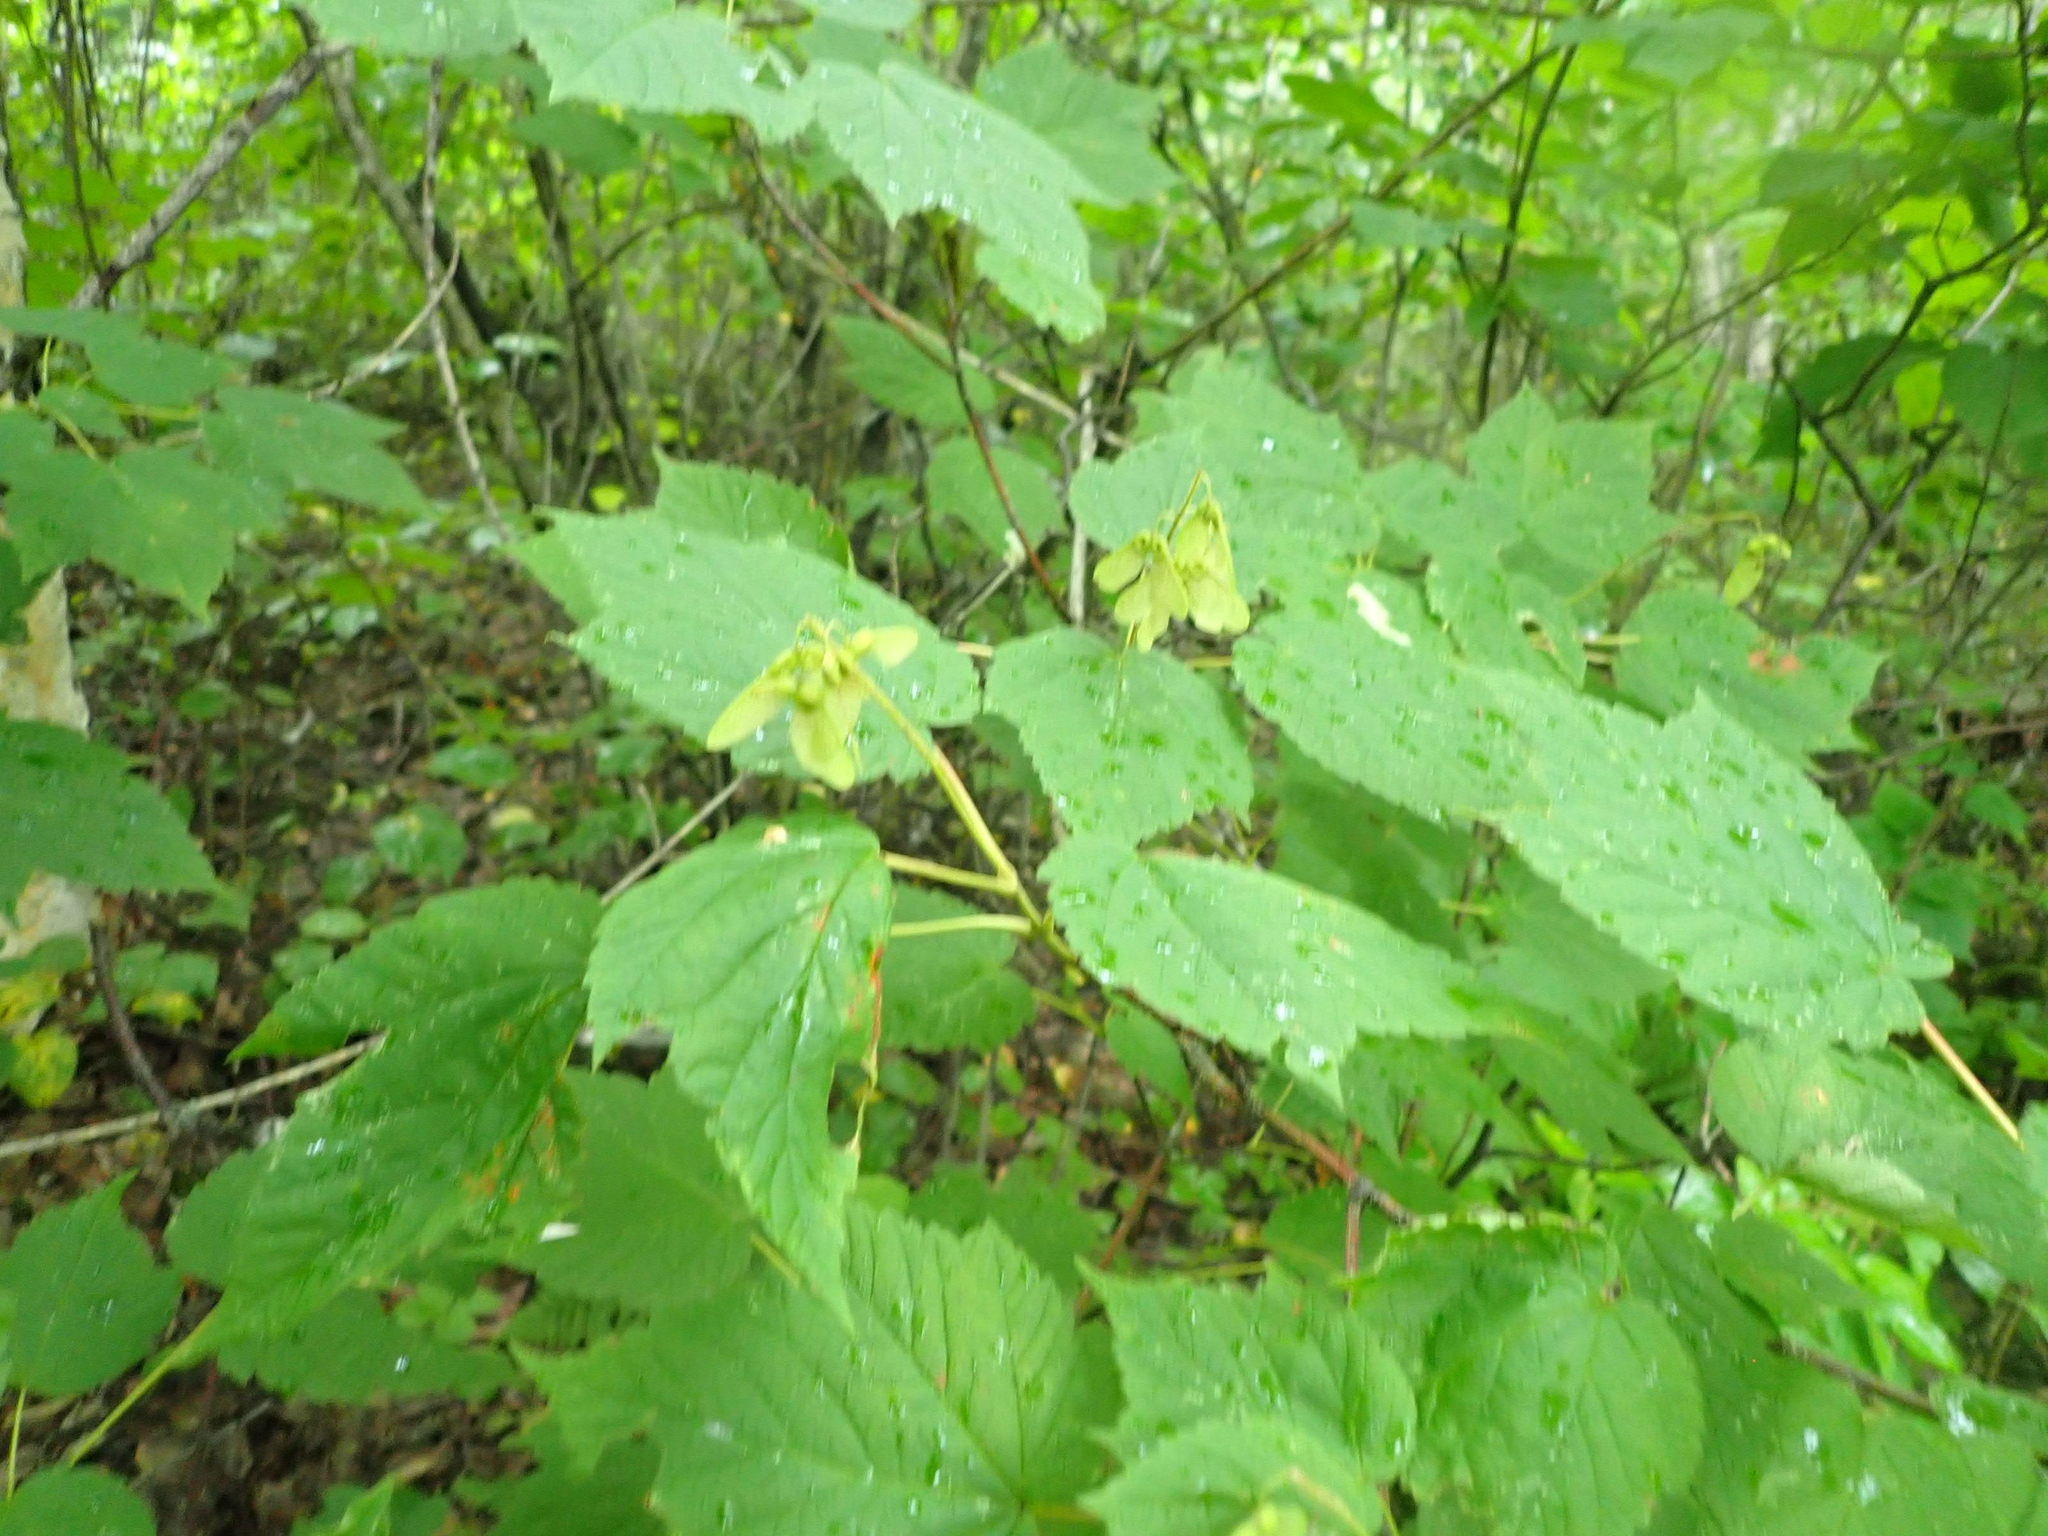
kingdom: Plantae
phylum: Tracheophyta
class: Magnoliopsida
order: Sapindales
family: Sapindaceae
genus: Acer
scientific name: Acer spicatum
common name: Mountain maple
